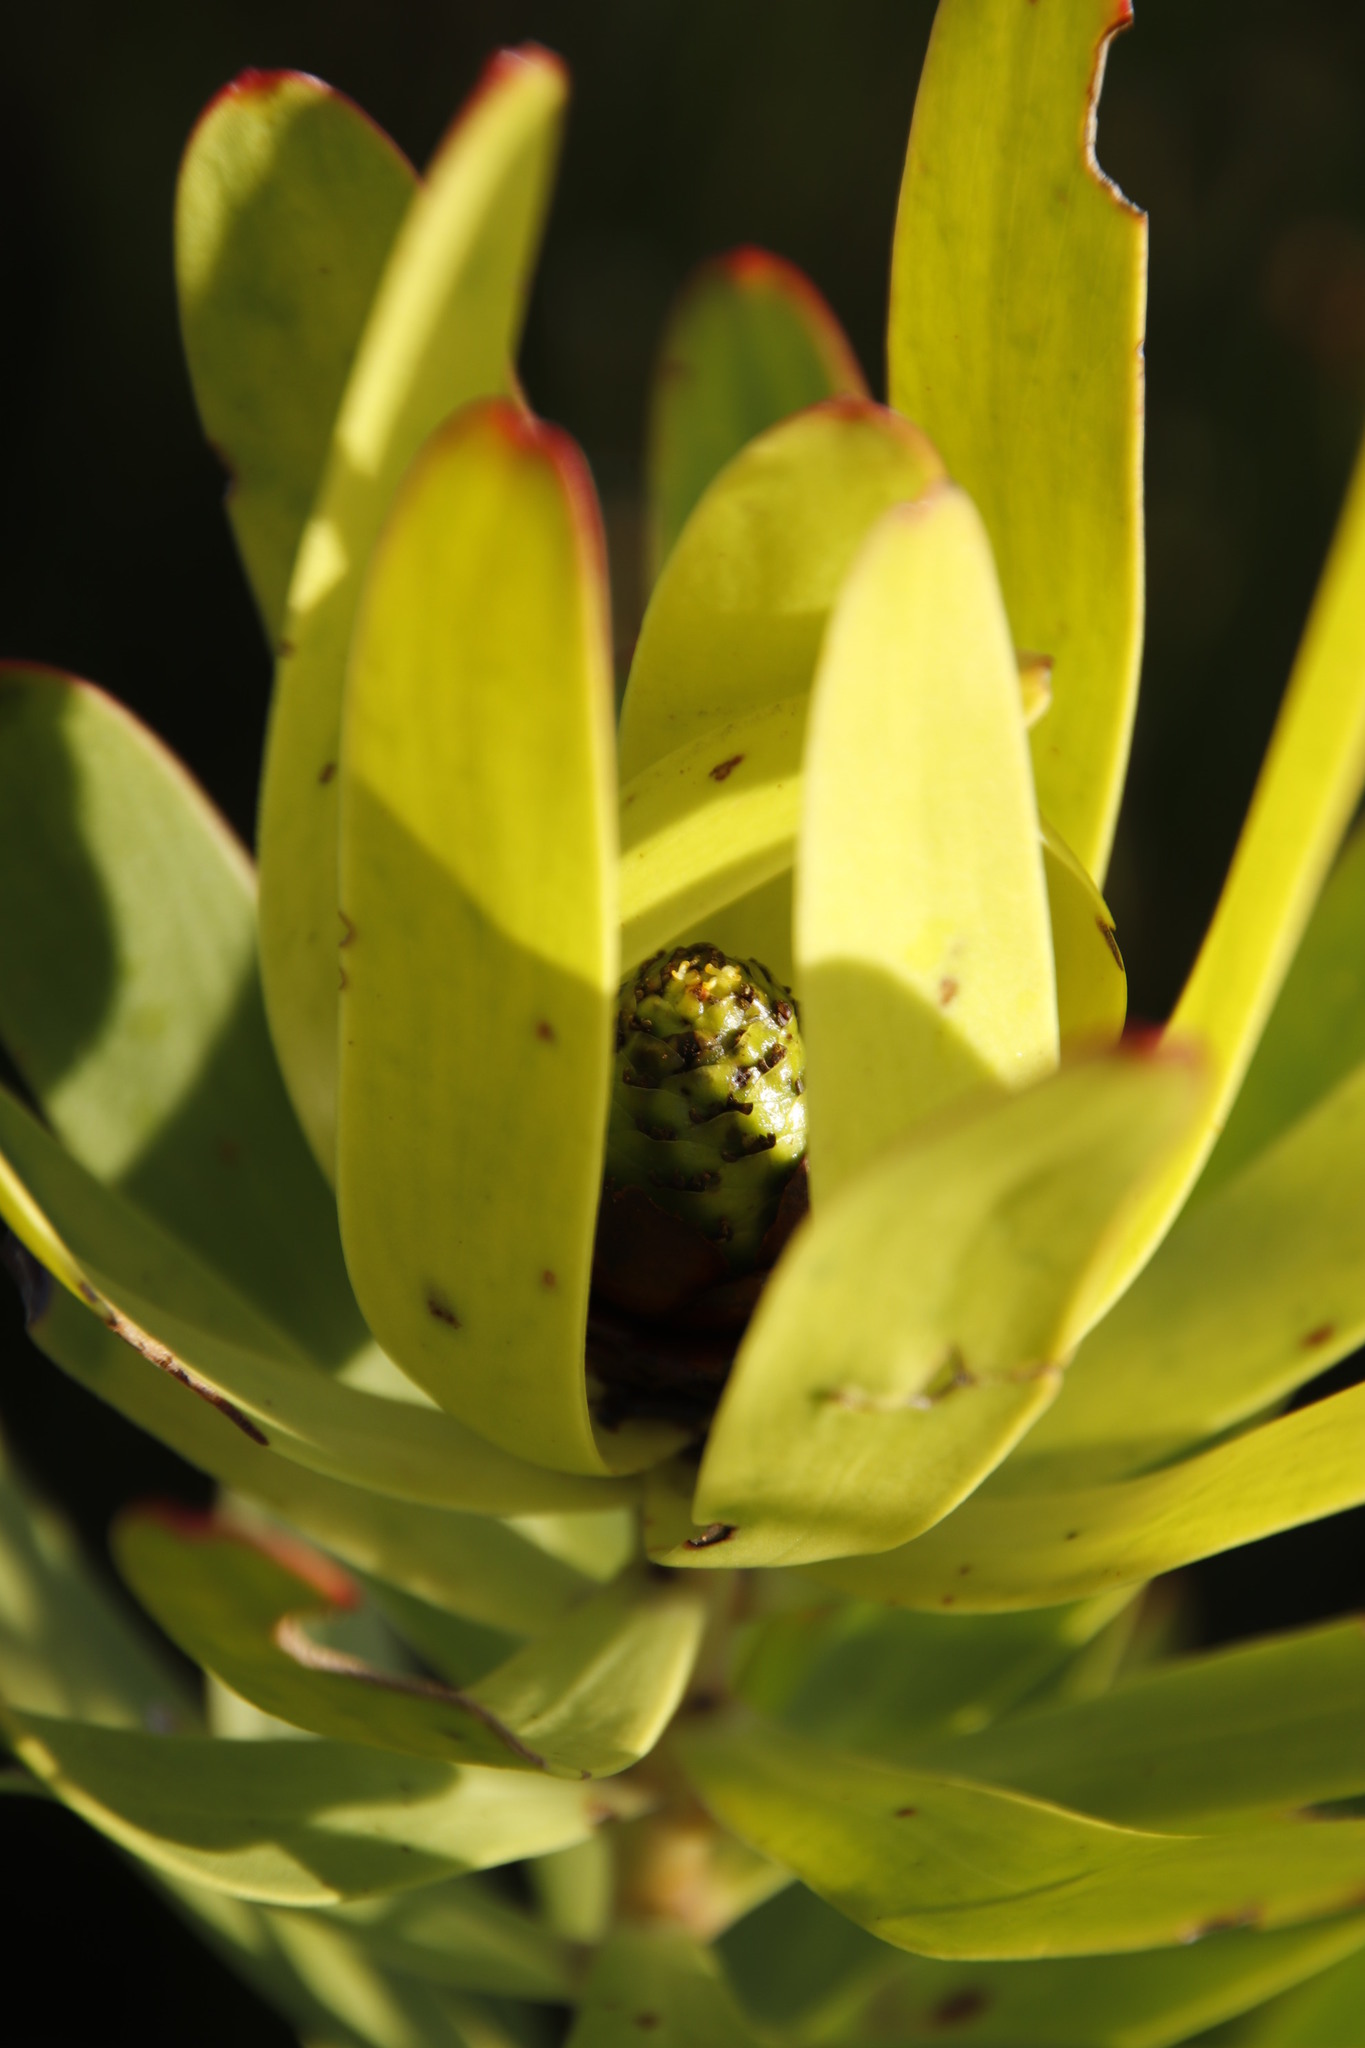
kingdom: Plantae
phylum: Tracheophyta
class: Magnoliopsida
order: Proteales
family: Proteaceae
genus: Leucadendron
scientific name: Leucadendron microcephalum
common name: Oilbract conebush
